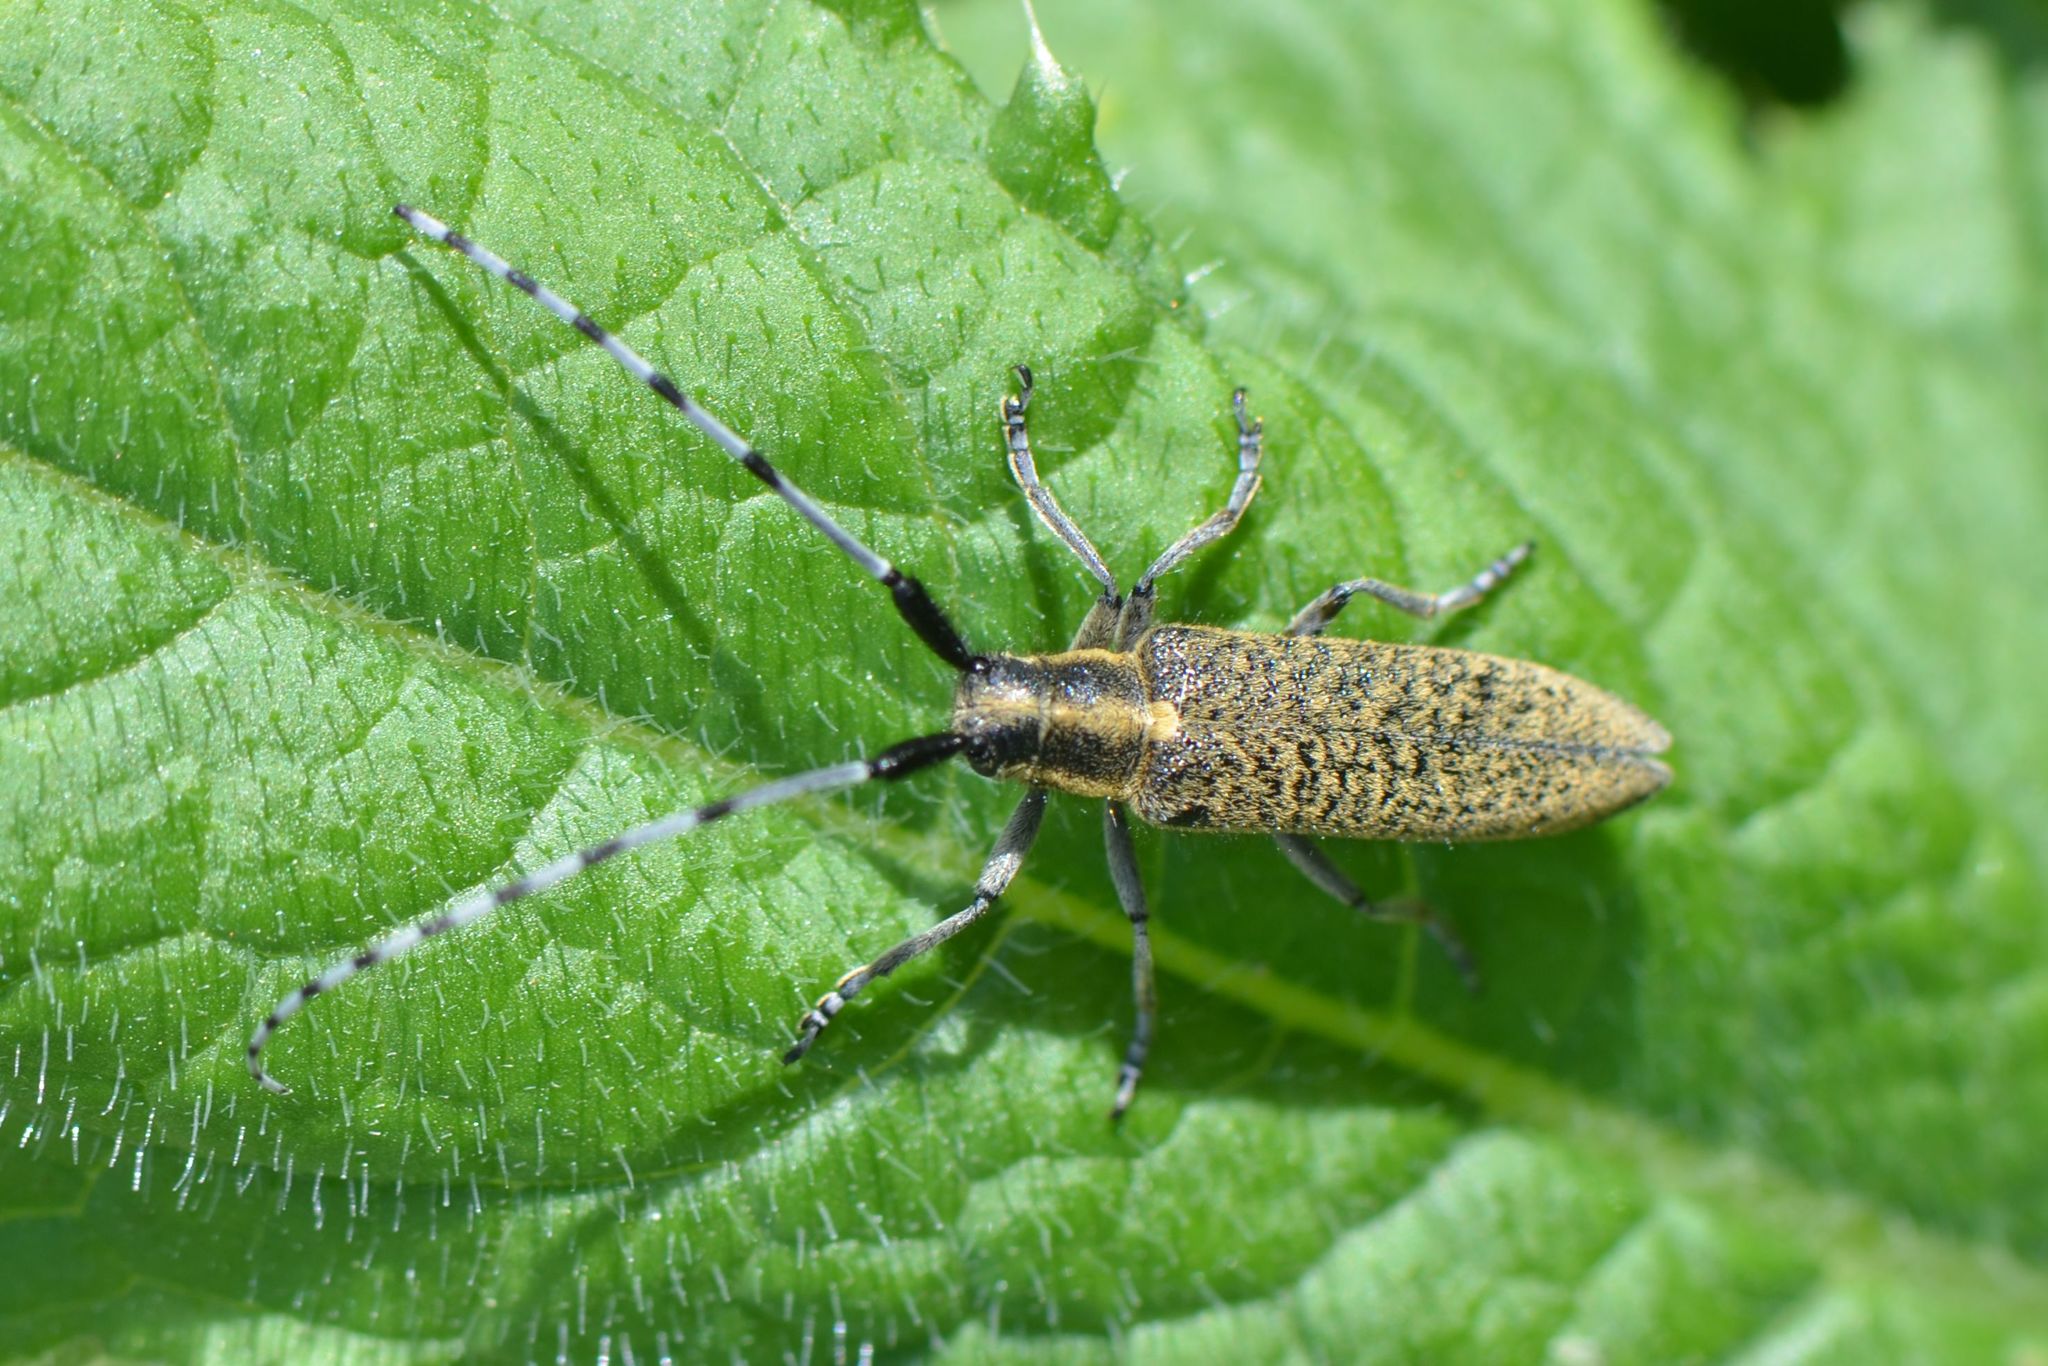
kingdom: Animalia
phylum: Arthropoda
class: Insecta
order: Coleoptera
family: Cerambycidae
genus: Agapanthia
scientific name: Agapanthia villosoviridescens
